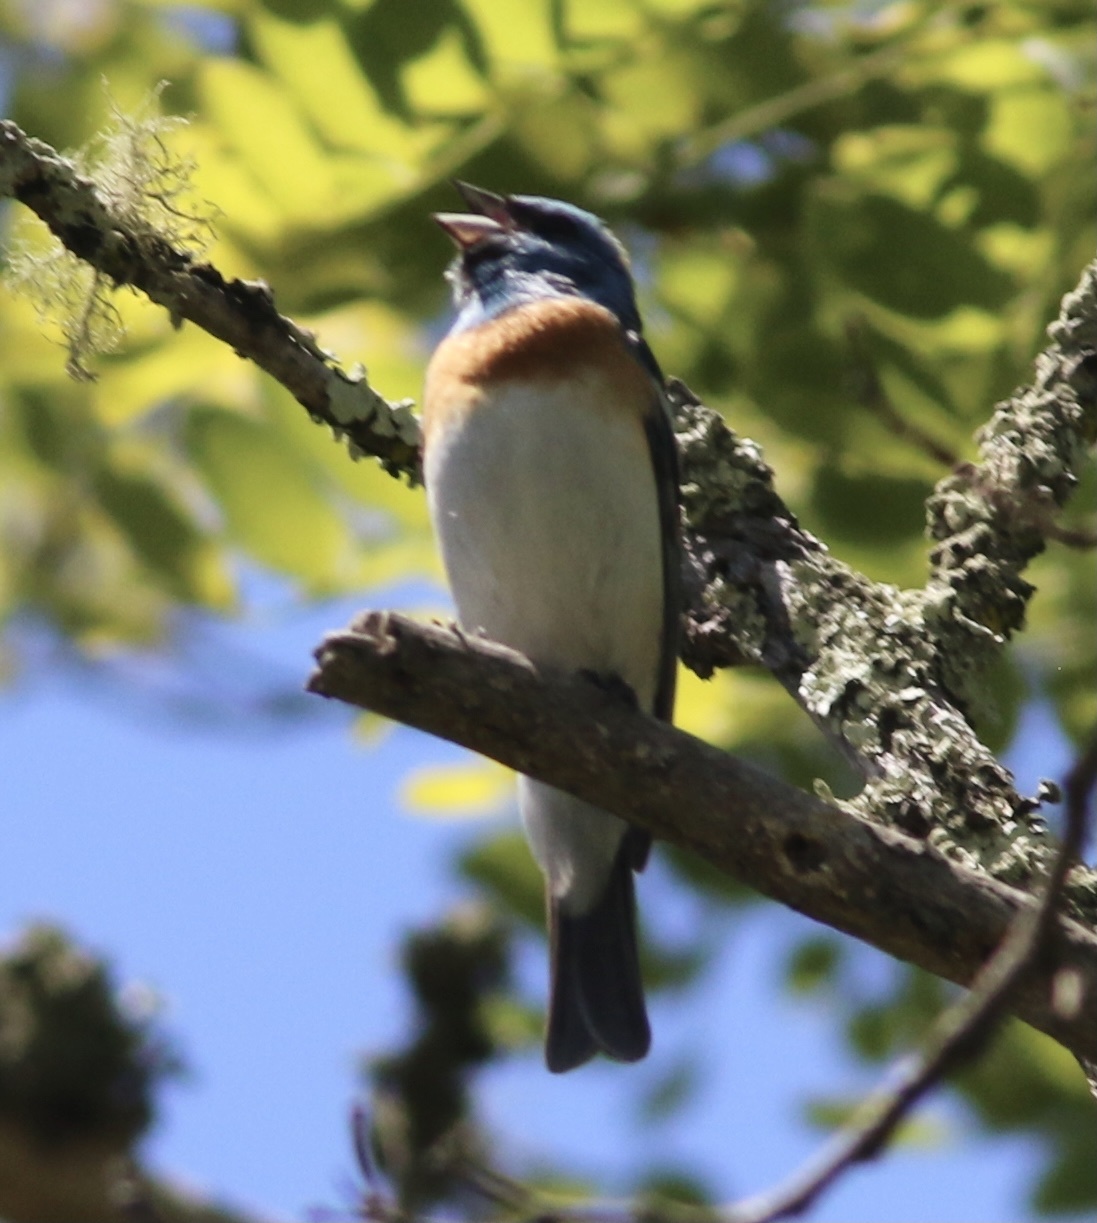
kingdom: Animalia
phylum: Chordata
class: Aves
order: Passeriformes
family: Cardinalidae
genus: Passerina
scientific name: Passerina amoena
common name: Lazuli bunting
